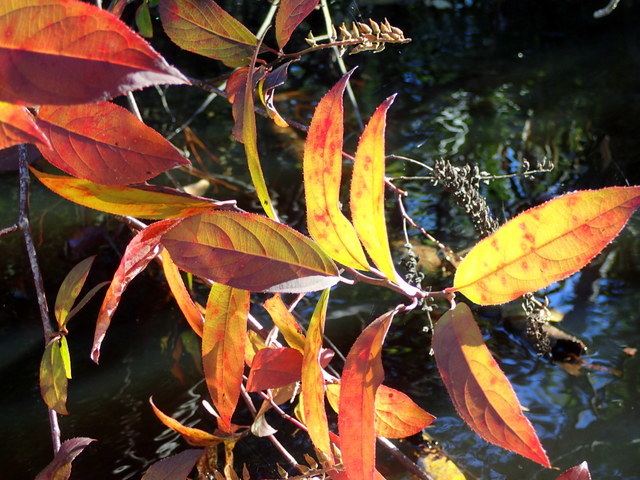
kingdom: Plantae
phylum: Tracheophyta
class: Magnoliopsida
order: Saxifragales
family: Iteaceae
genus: Itea
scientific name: Itea virginica
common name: Sweetspire
